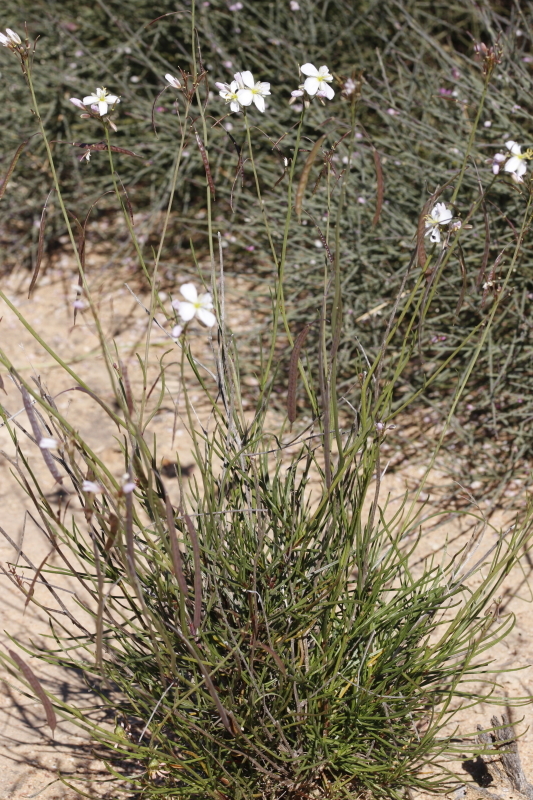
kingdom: Plantae
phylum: Tracheophyta
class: Magnoliopsida
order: Brassicales
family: Brassicaceae
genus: Heliophila
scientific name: Heliophila carnosa
